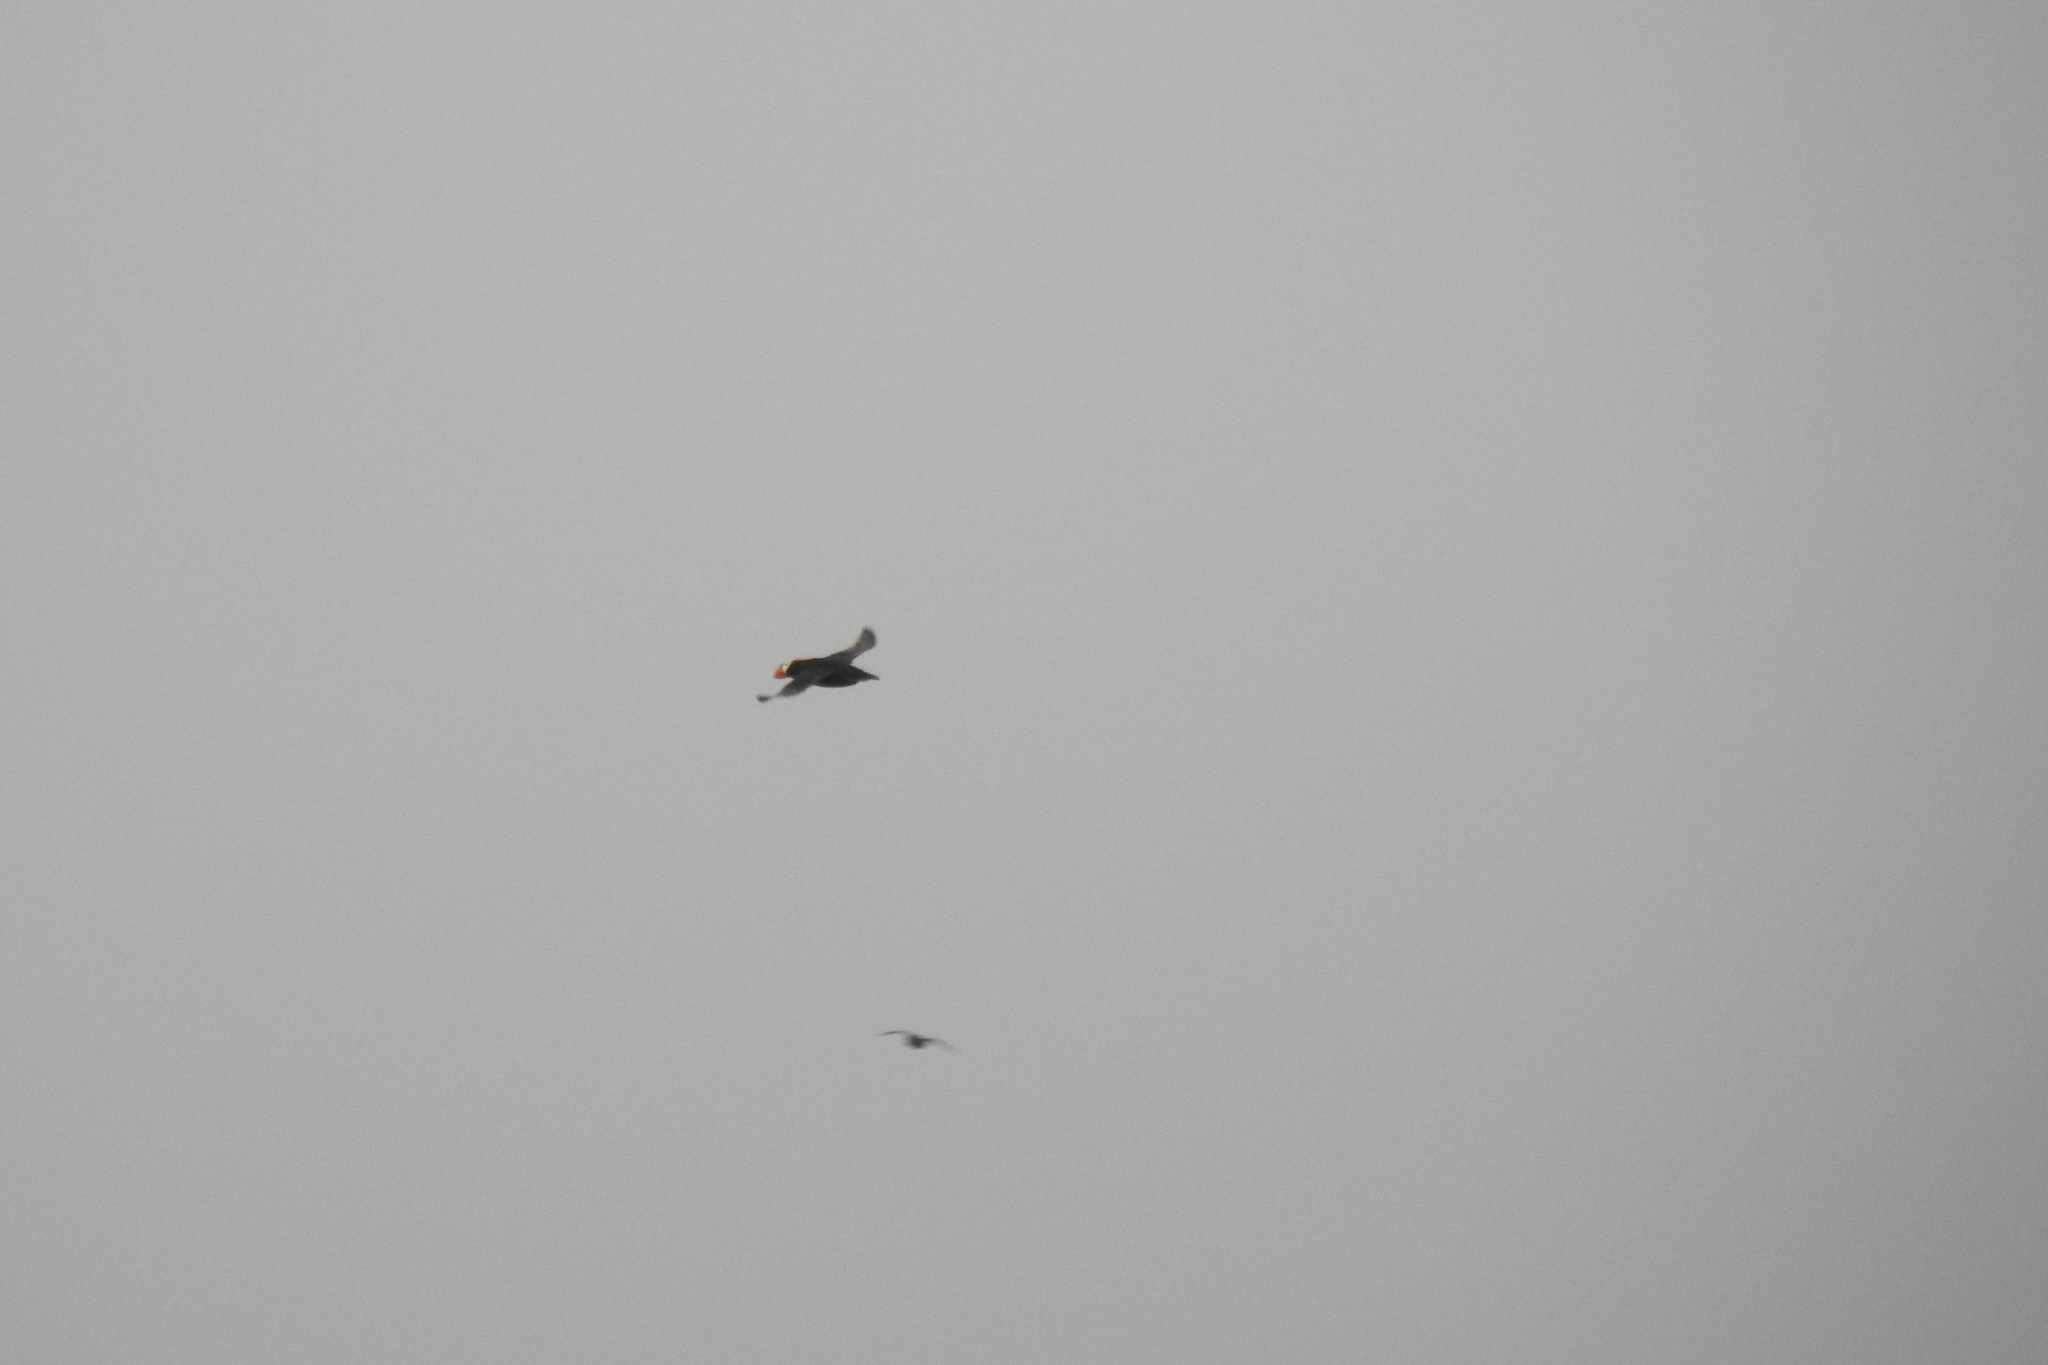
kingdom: Animalia
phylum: Chordata
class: Aves
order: Charadriiformes
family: Alcidae
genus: Fratercula
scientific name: Fratercula cirrhata
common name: Tufted puffin
